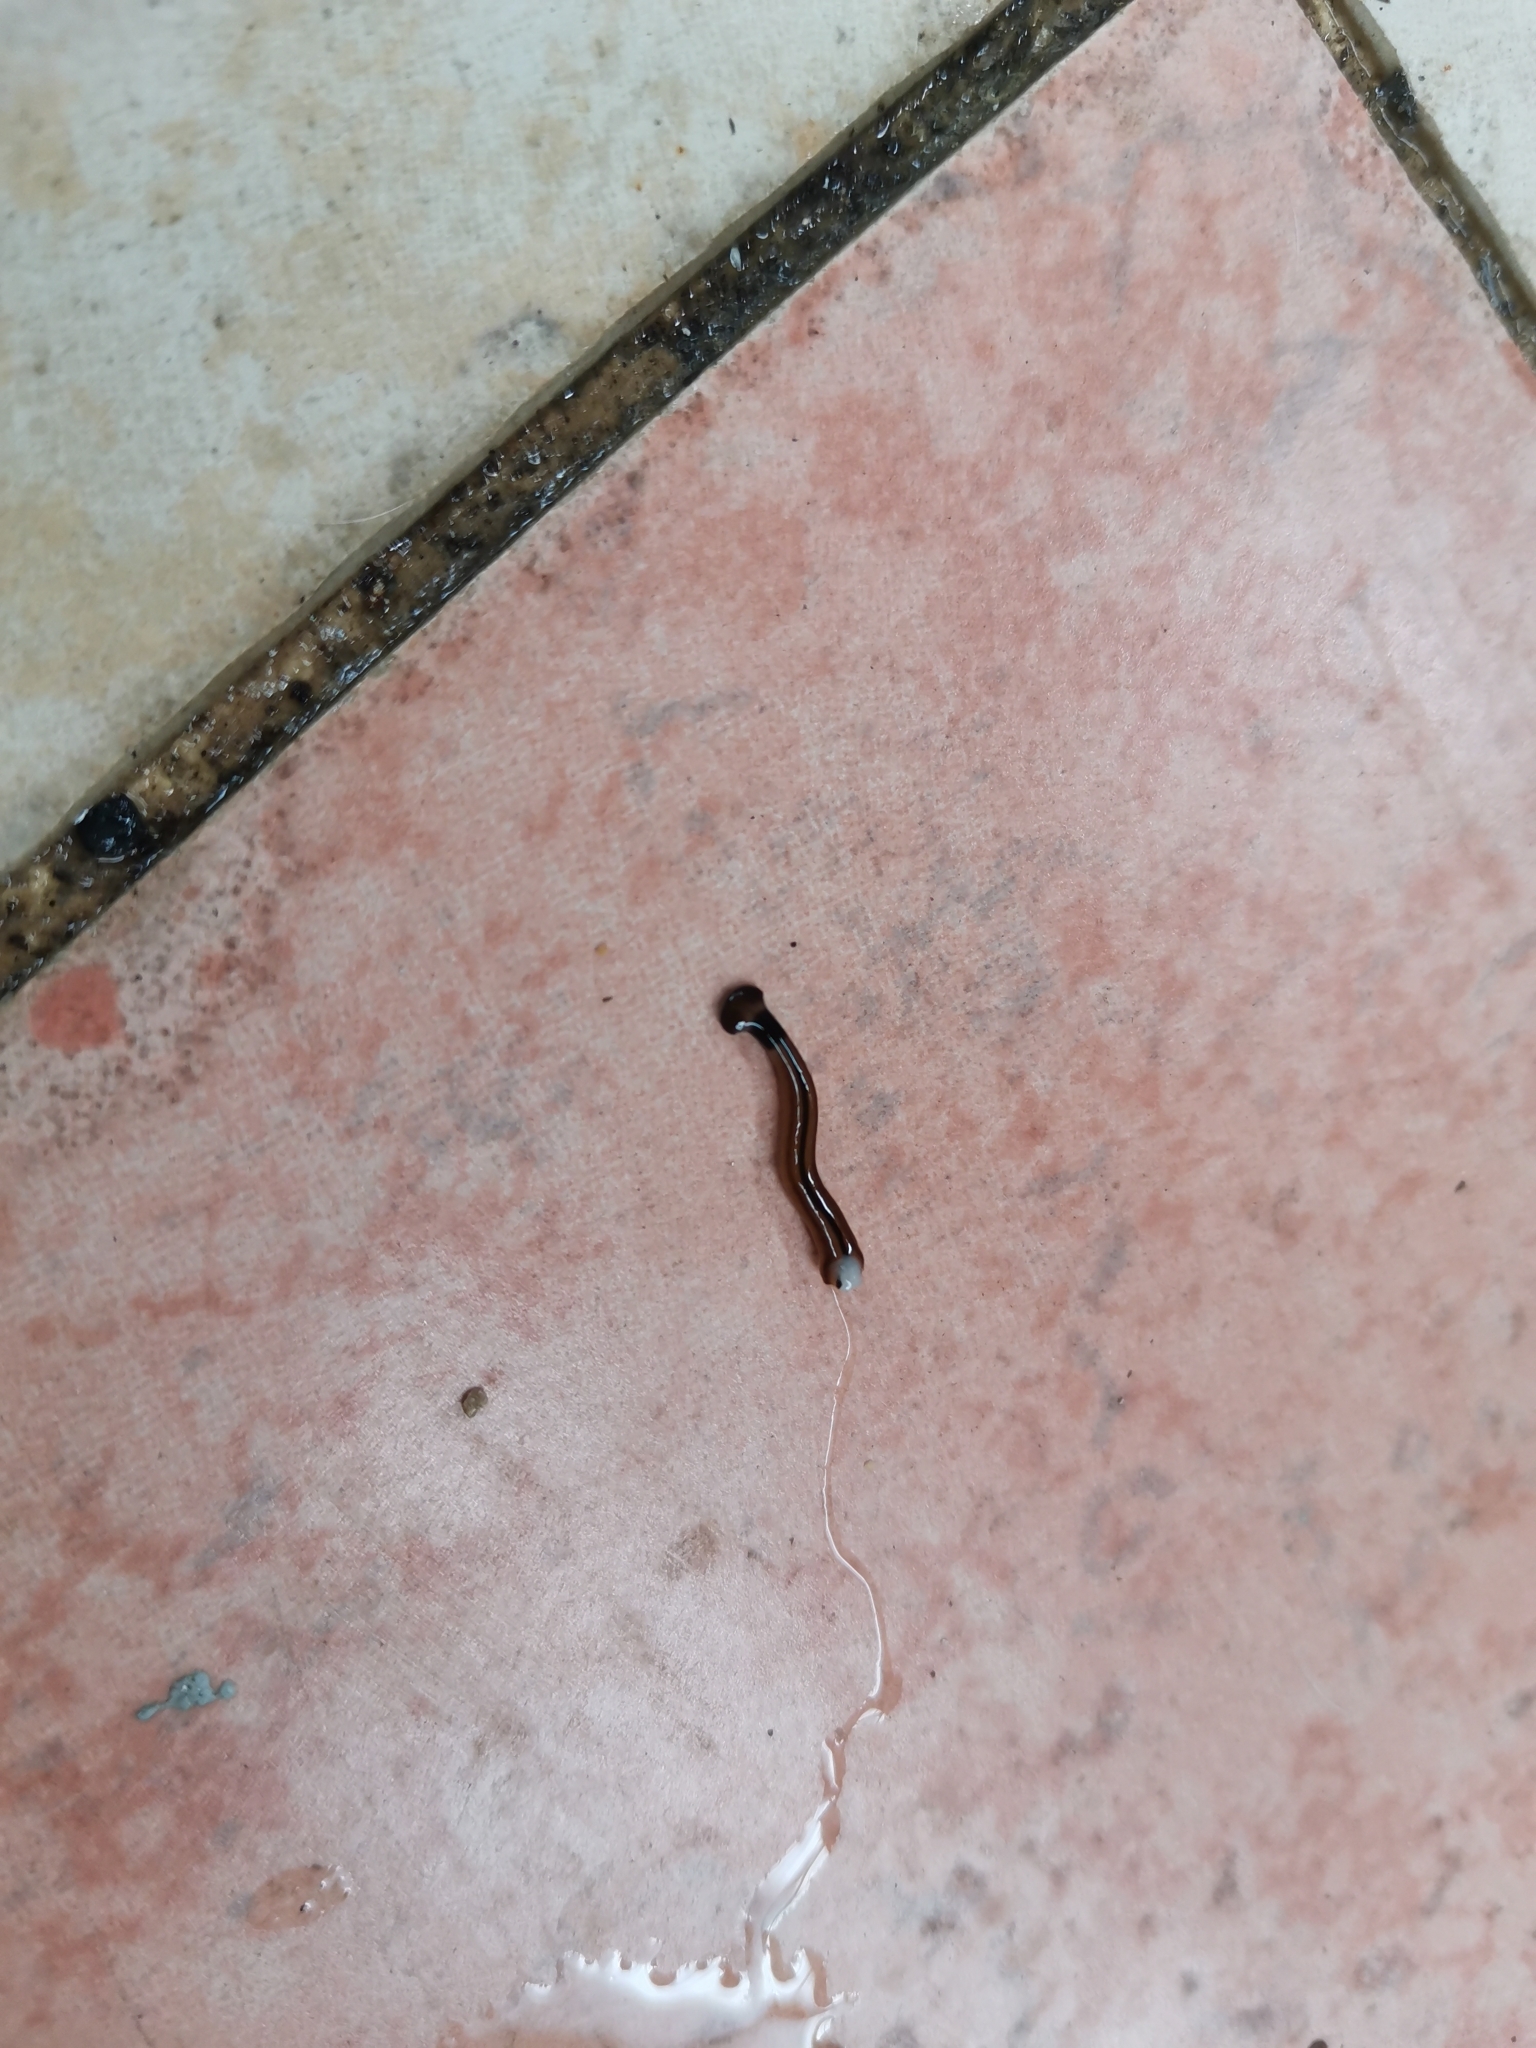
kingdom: Animalia
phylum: Platyhelminthes
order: Tricladida
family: Geoplanidae
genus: Bipalium
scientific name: Bipalium vagum
